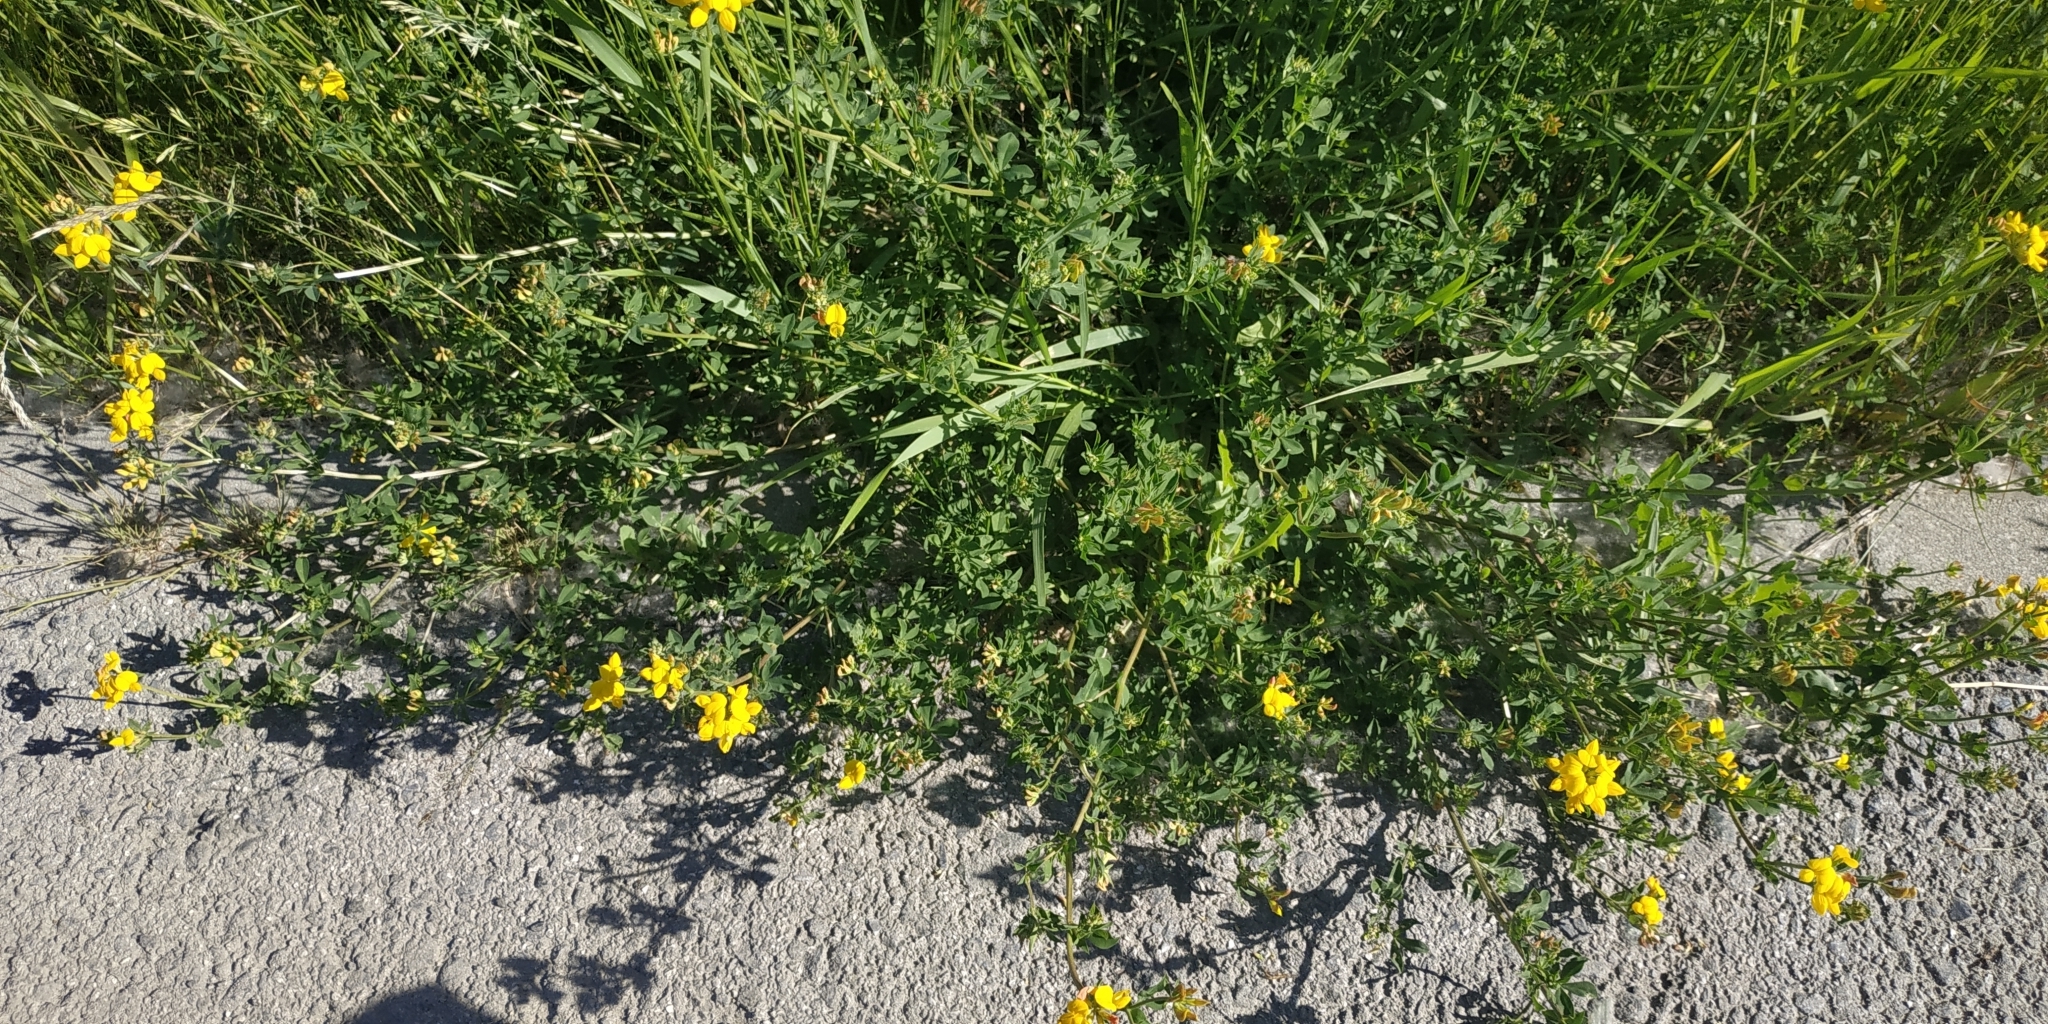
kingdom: Plantae
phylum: Tracheophyta
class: Magnoliopsida
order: Fabales
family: Fabaceae
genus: Lotus
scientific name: Lotus ucrainicus
